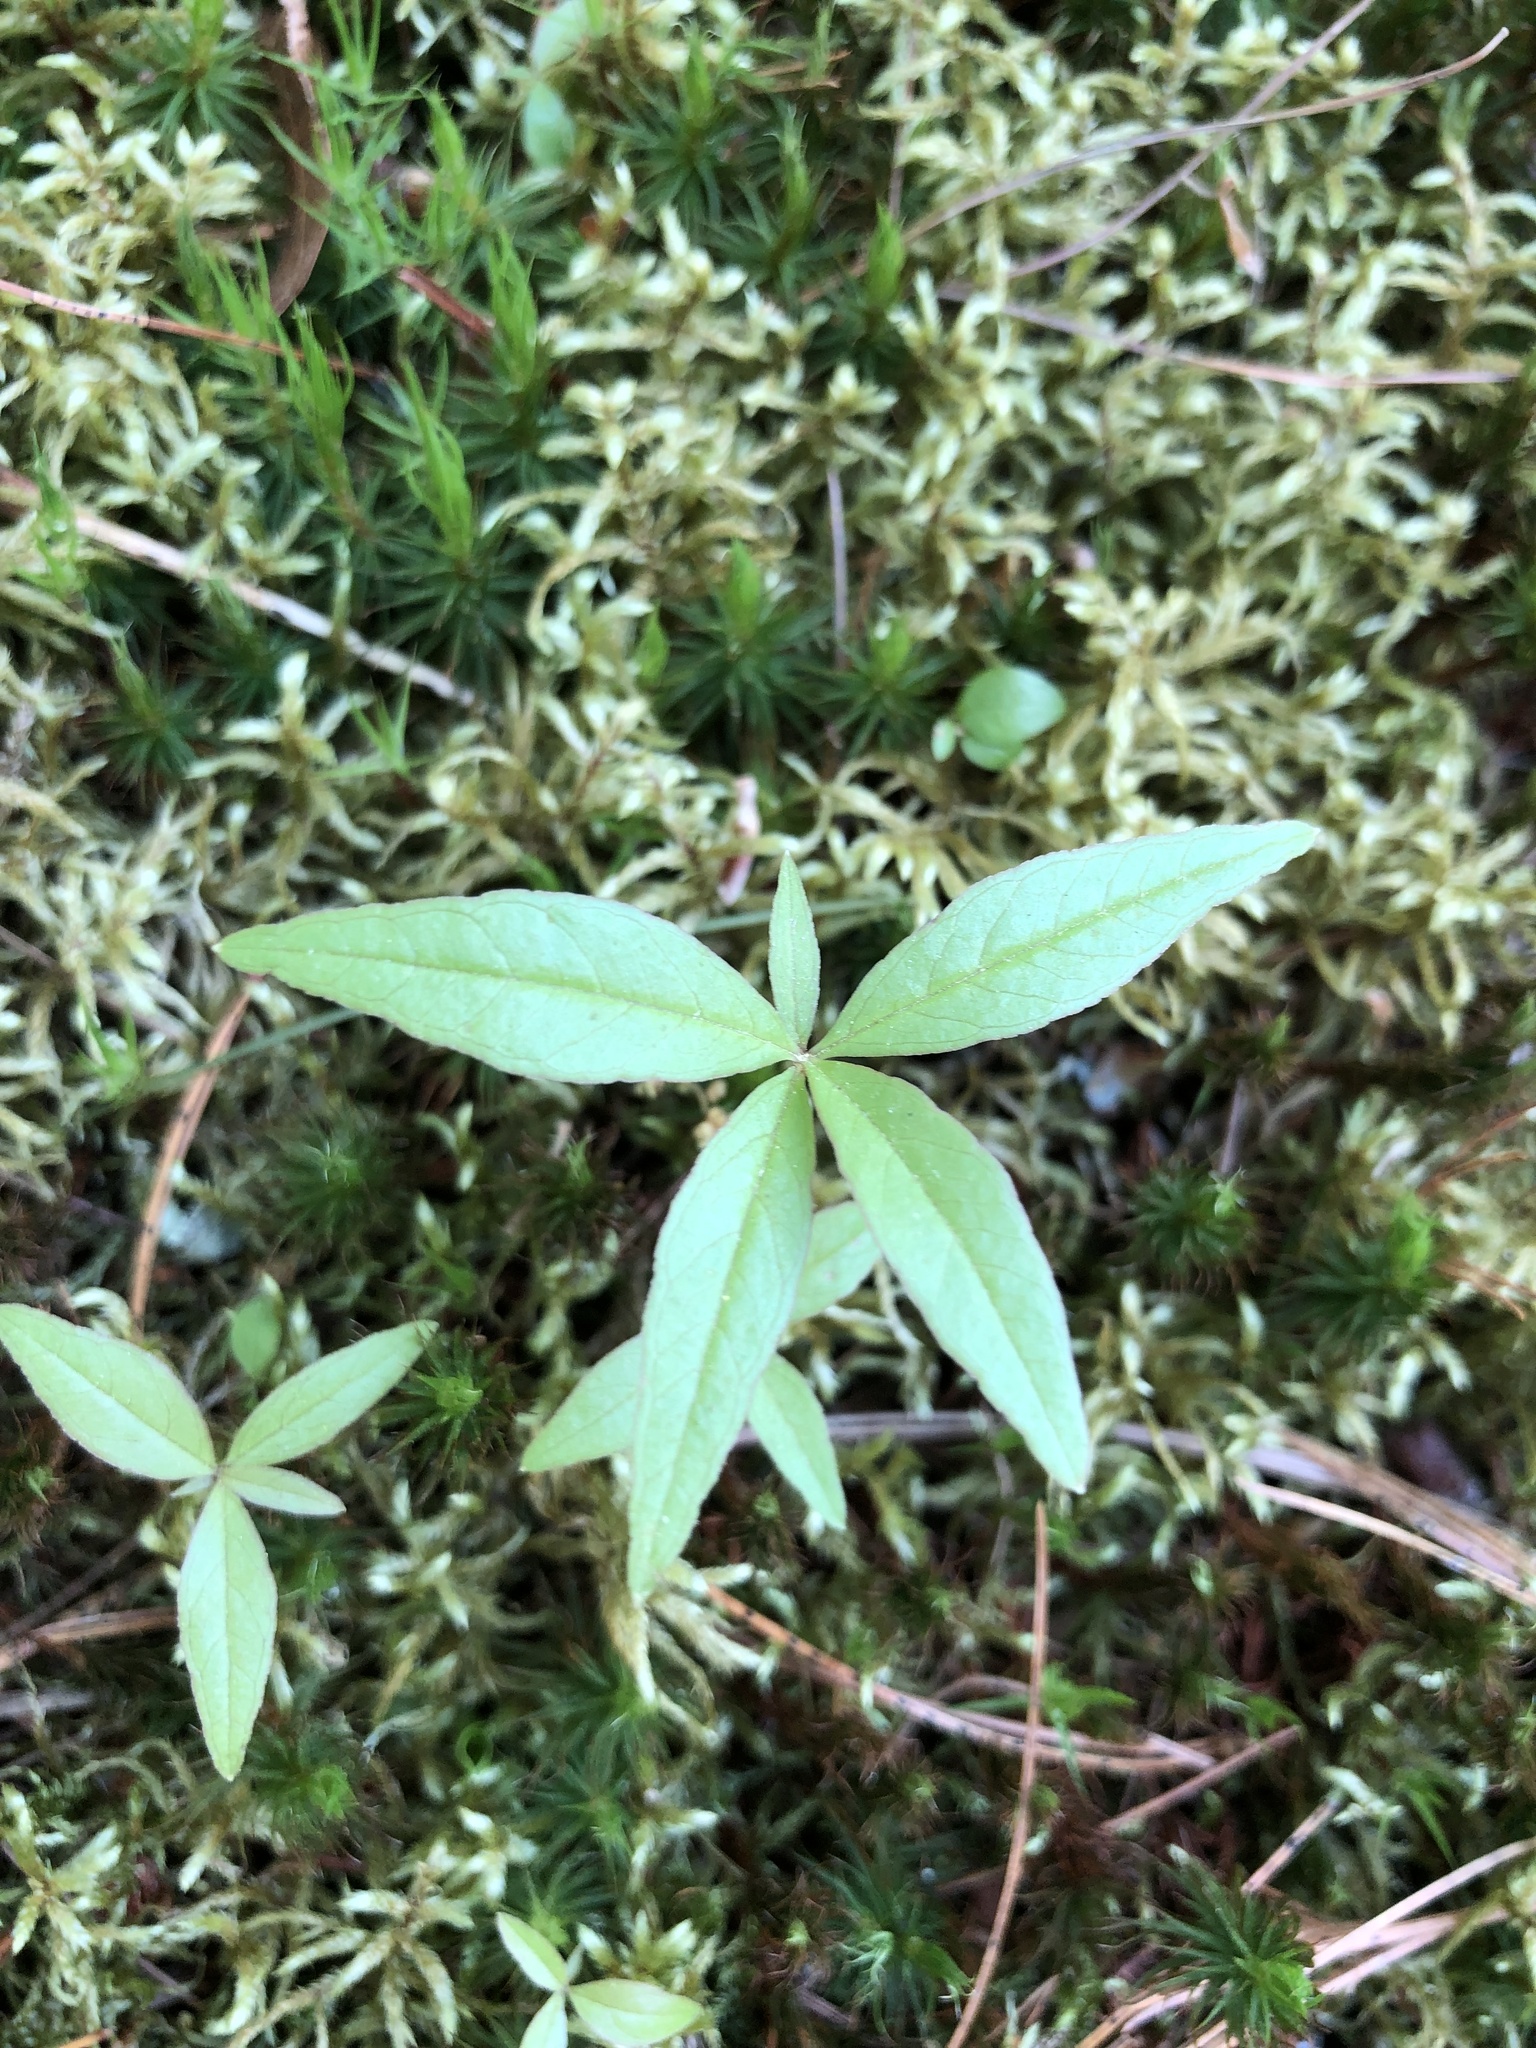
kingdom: Plantae
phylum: Tracheophyta
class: Magnoliopsida
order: Ericales
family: Primulaceae
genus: Lysimachia
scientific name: Lysimachia borealis
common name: American starflower
